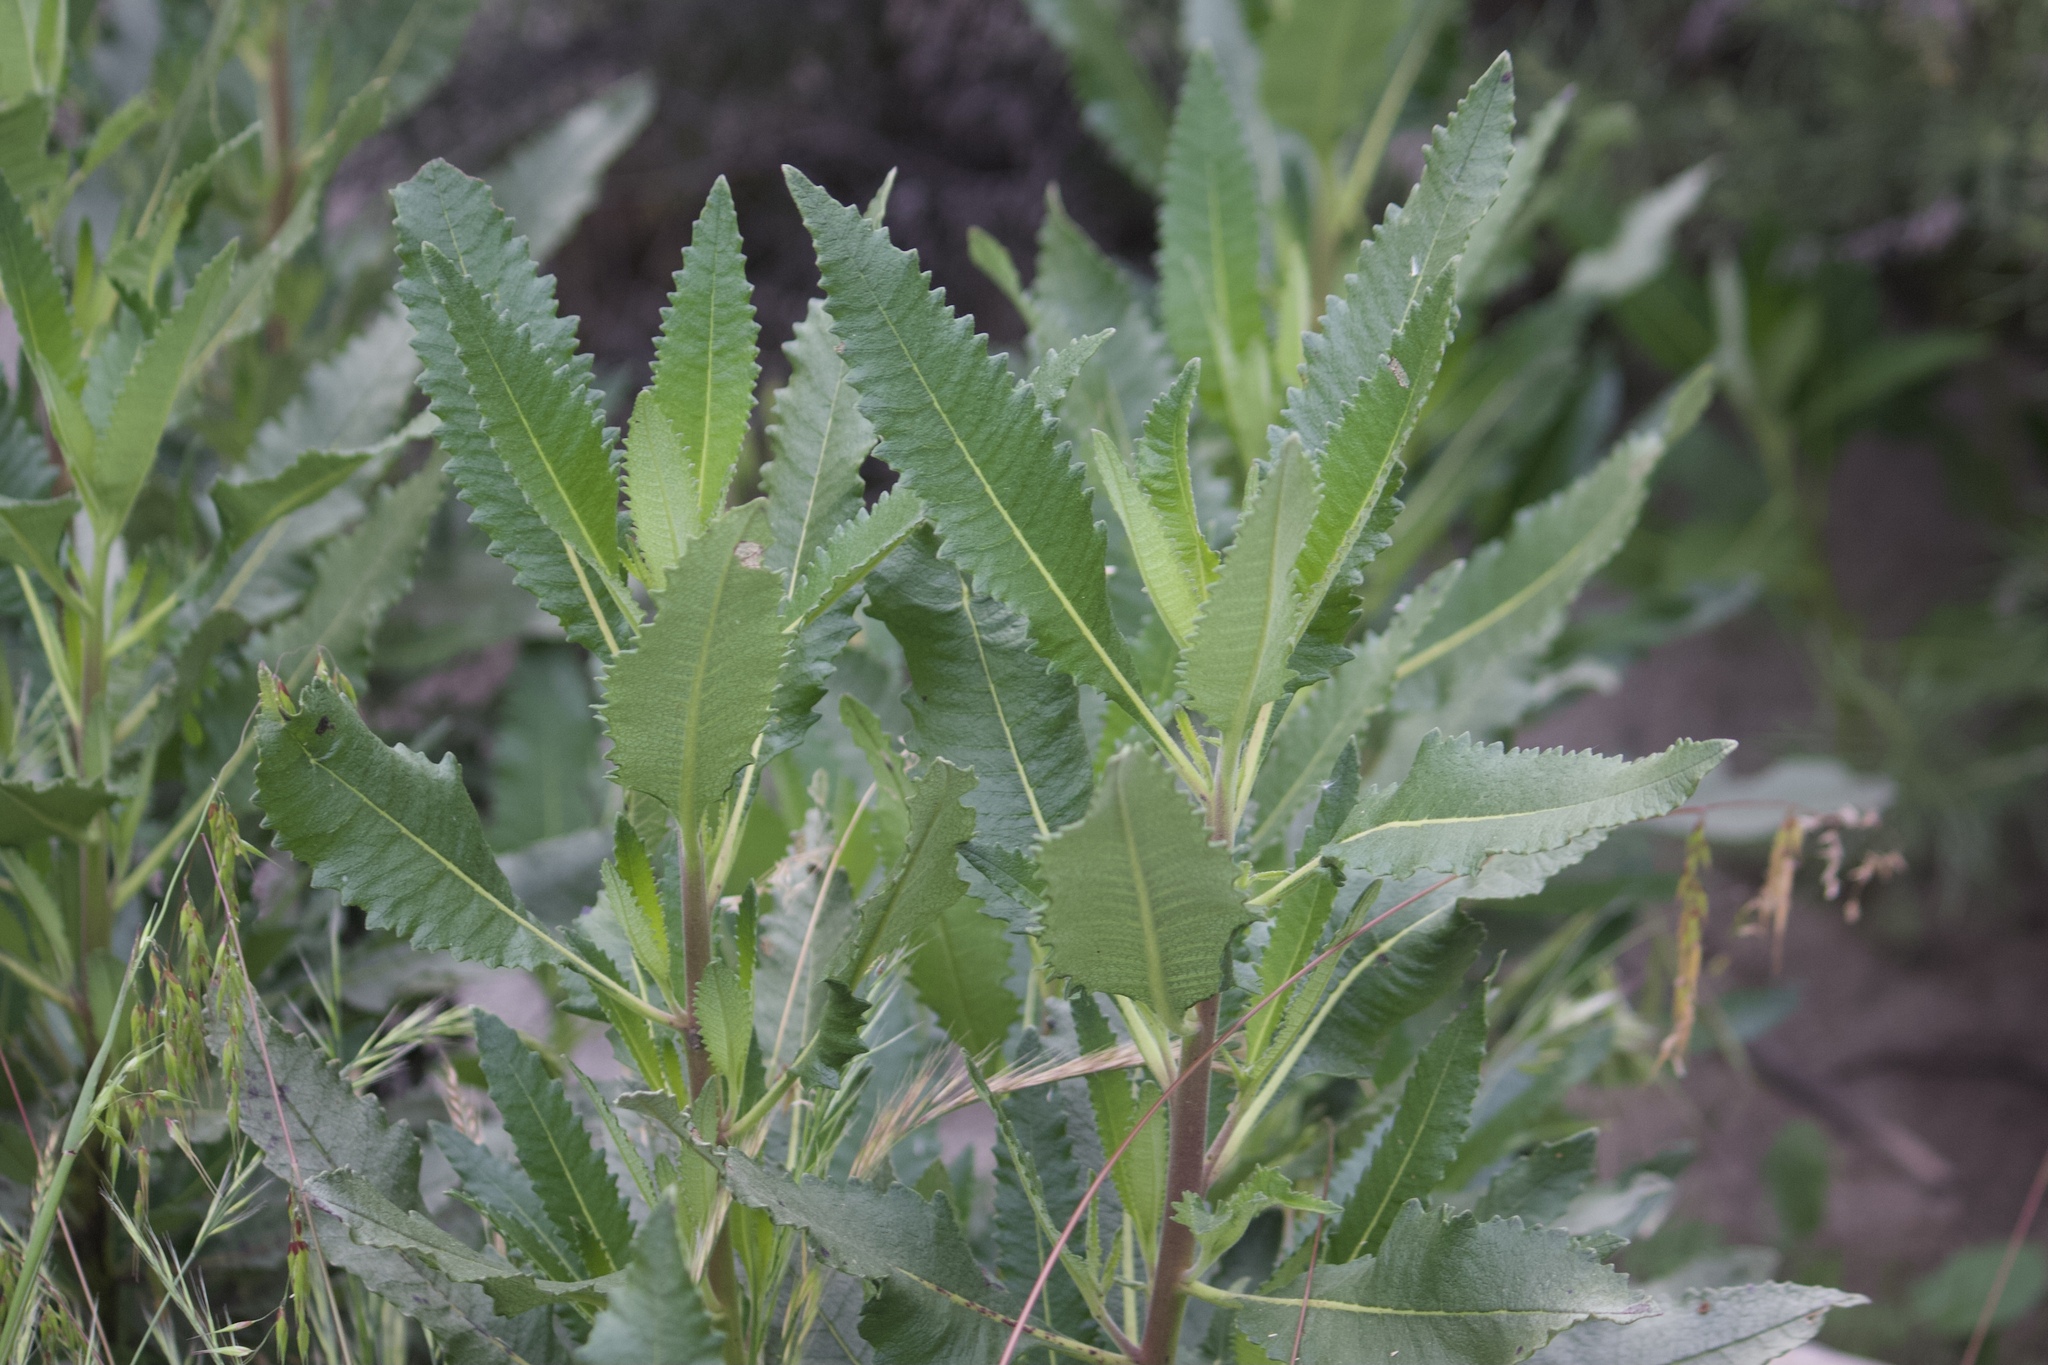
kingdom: Plantae
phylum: Tracheophyta
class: Magnoliopsida
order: Boraginales
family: Namaceae
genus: Eriodictyon
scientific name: Eriodictyon trichocalyx
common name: Hairy yerba-santa
